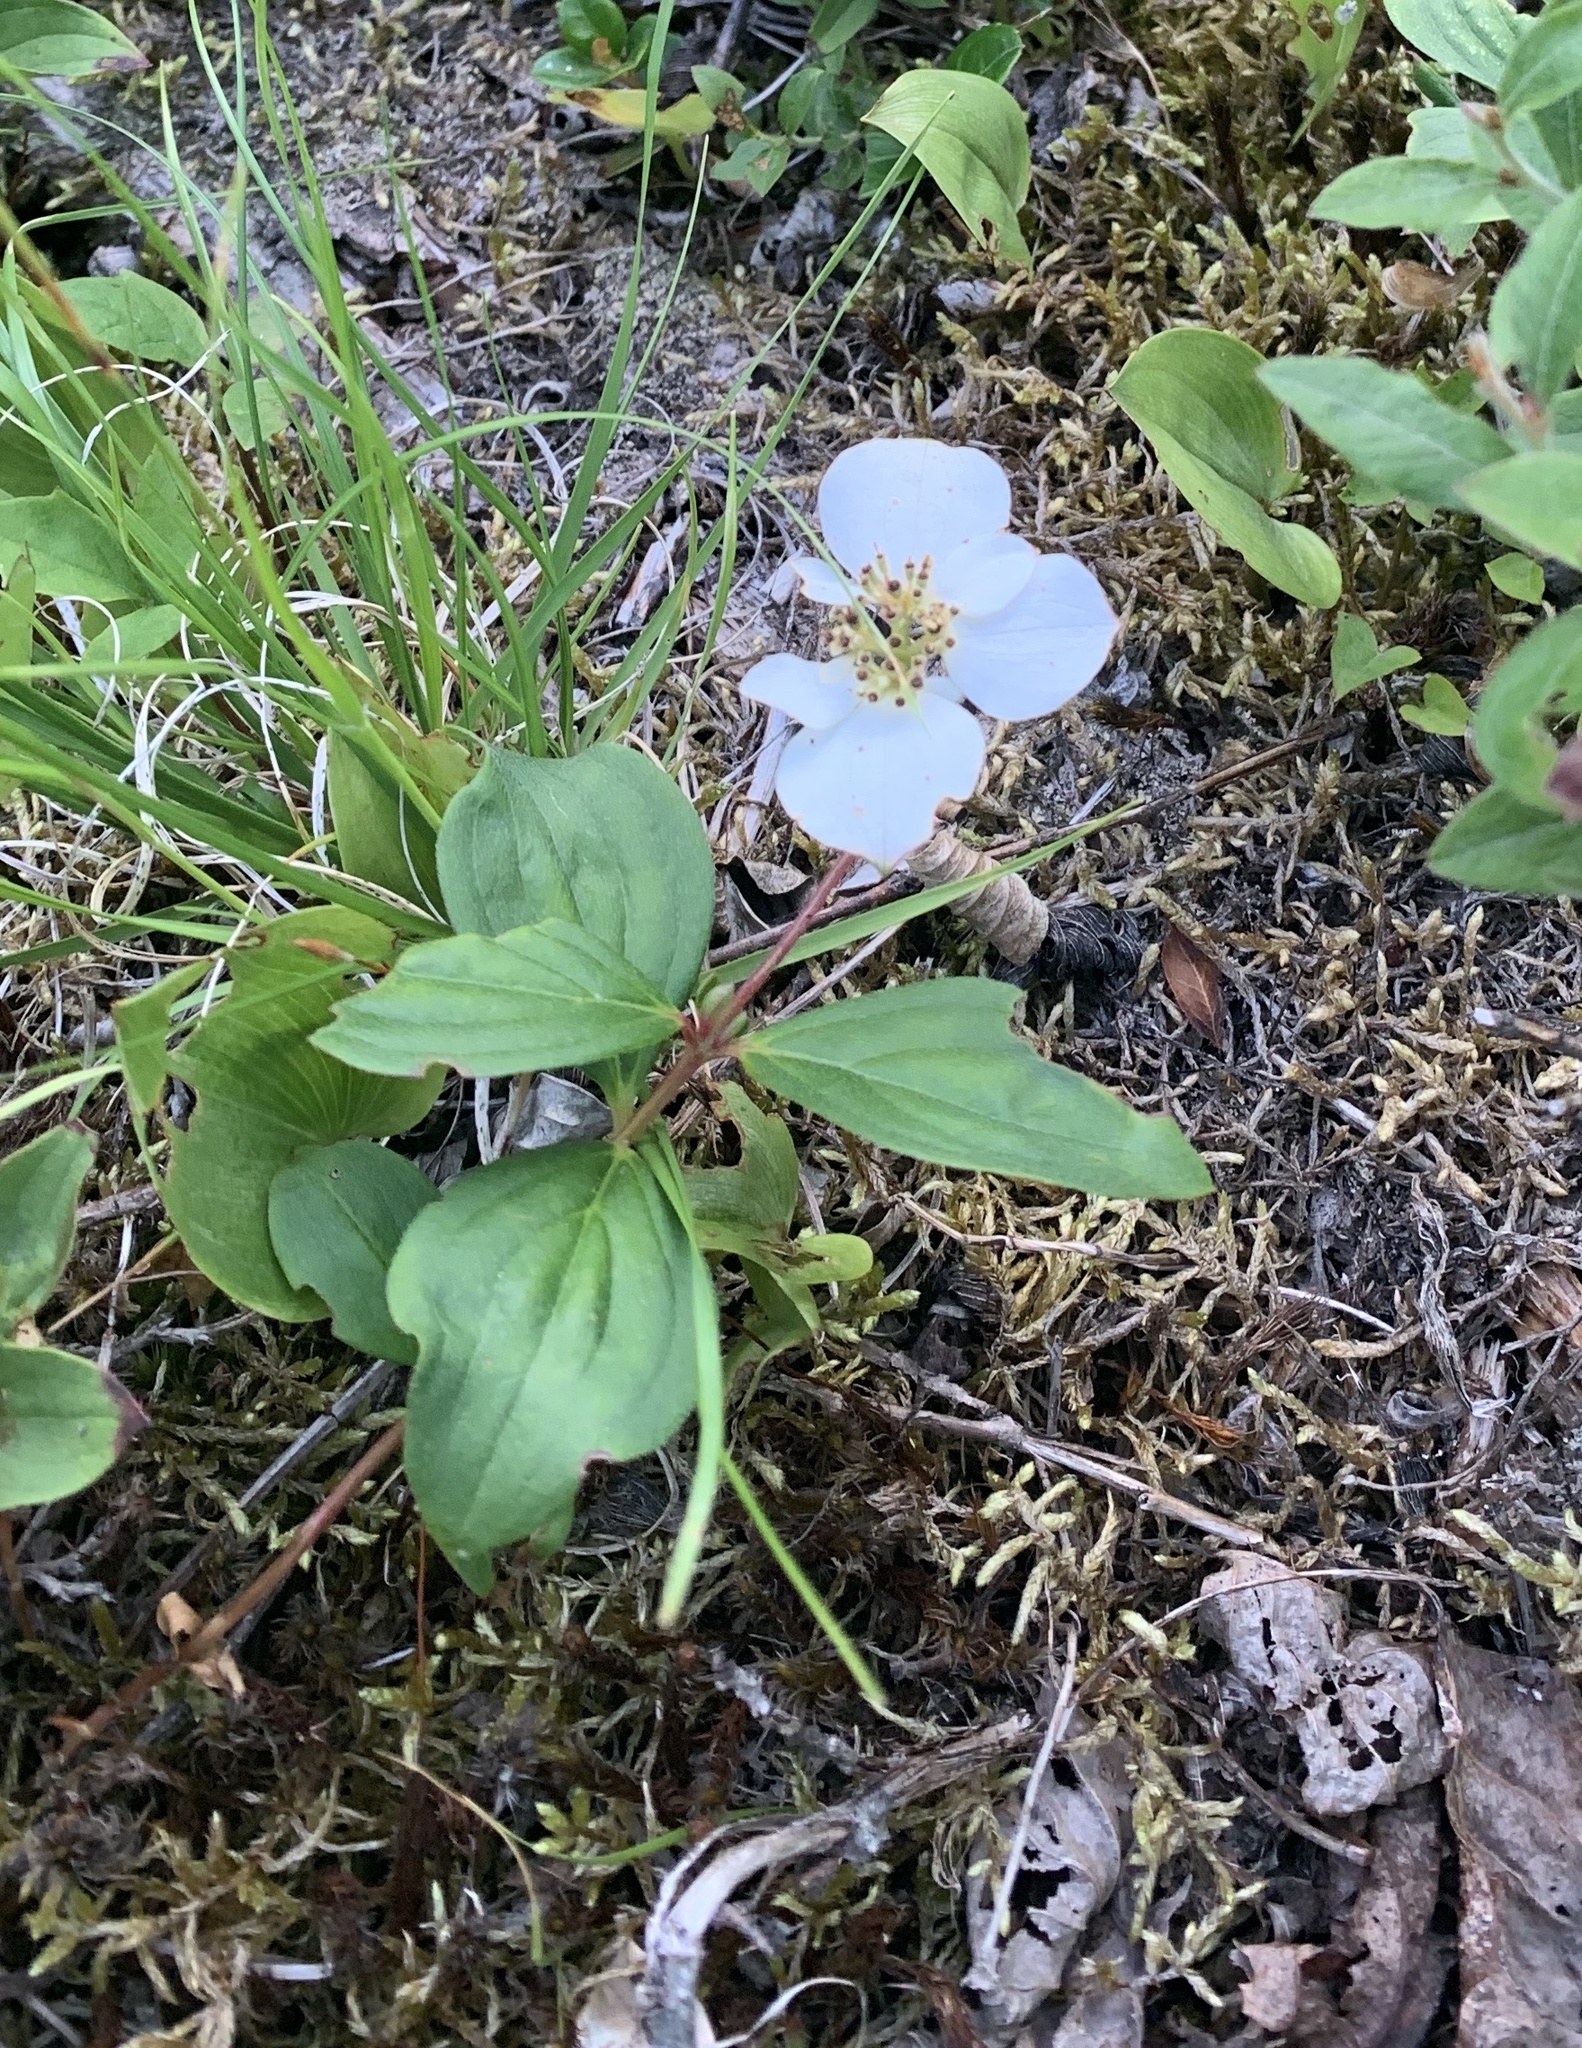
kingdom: Plantae
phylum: Tracheophyta
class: Magnoliopsida
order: Cornales
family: Cornaceae
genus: Cornus
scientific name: Cornus canadensis
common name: Creeping dogwood
